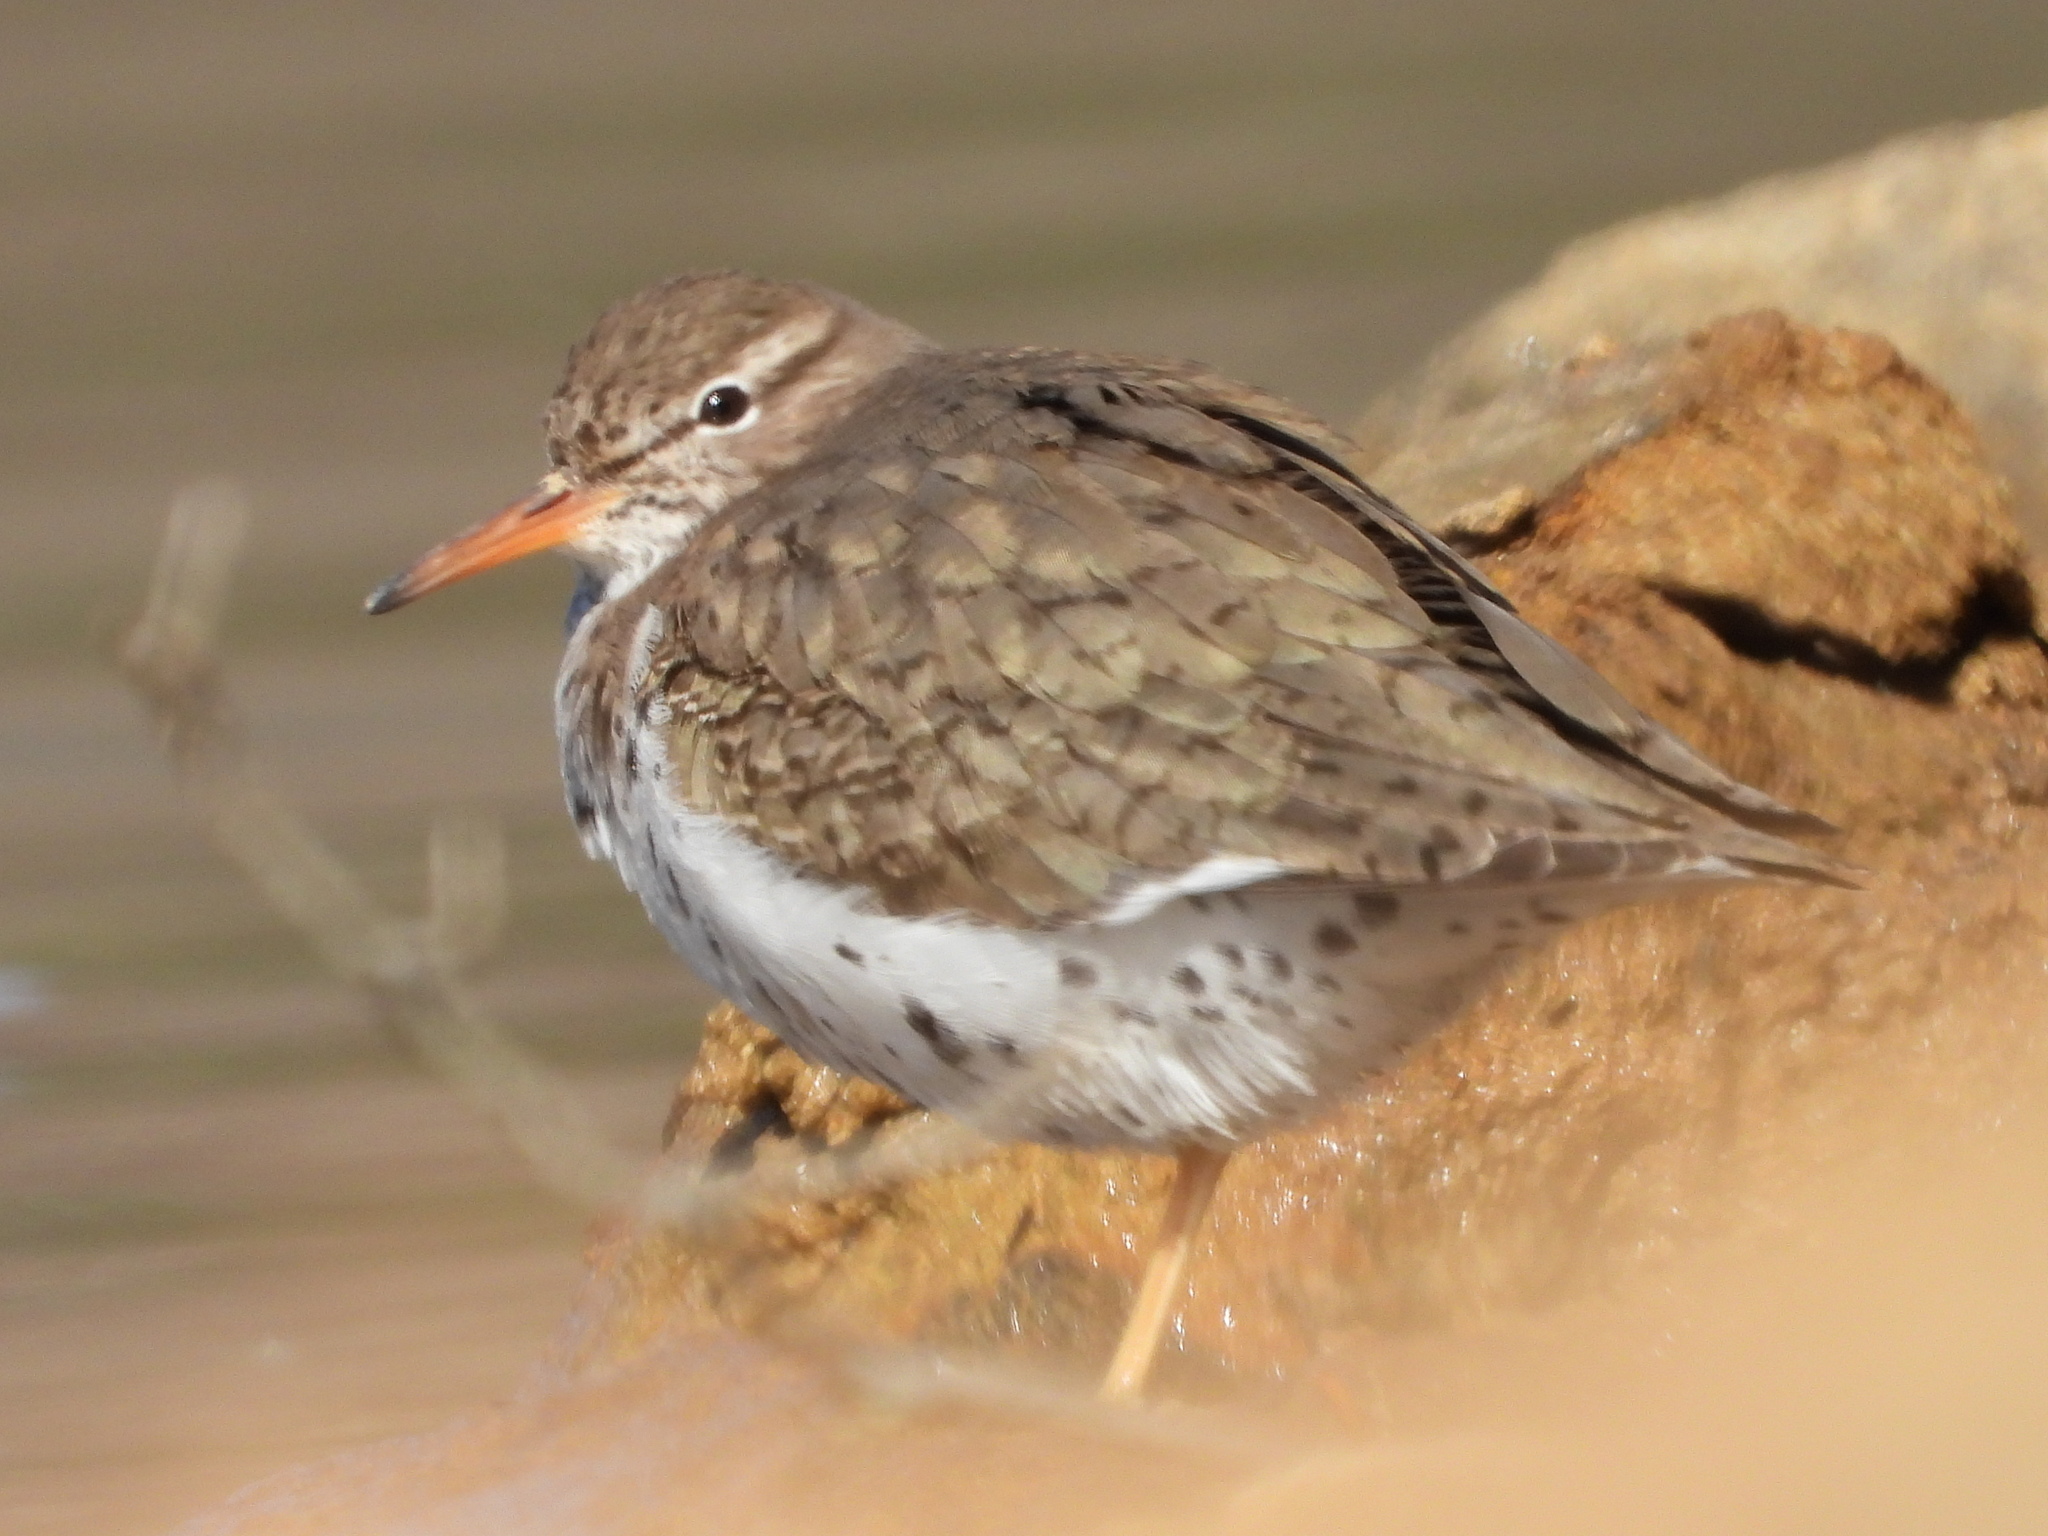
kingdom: Animalia
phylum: Chordata
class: Aves
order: Charadriiformes
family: Scolopacidae
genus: Actitis
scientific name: Actitis macularius
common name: Spotted sandpiper
